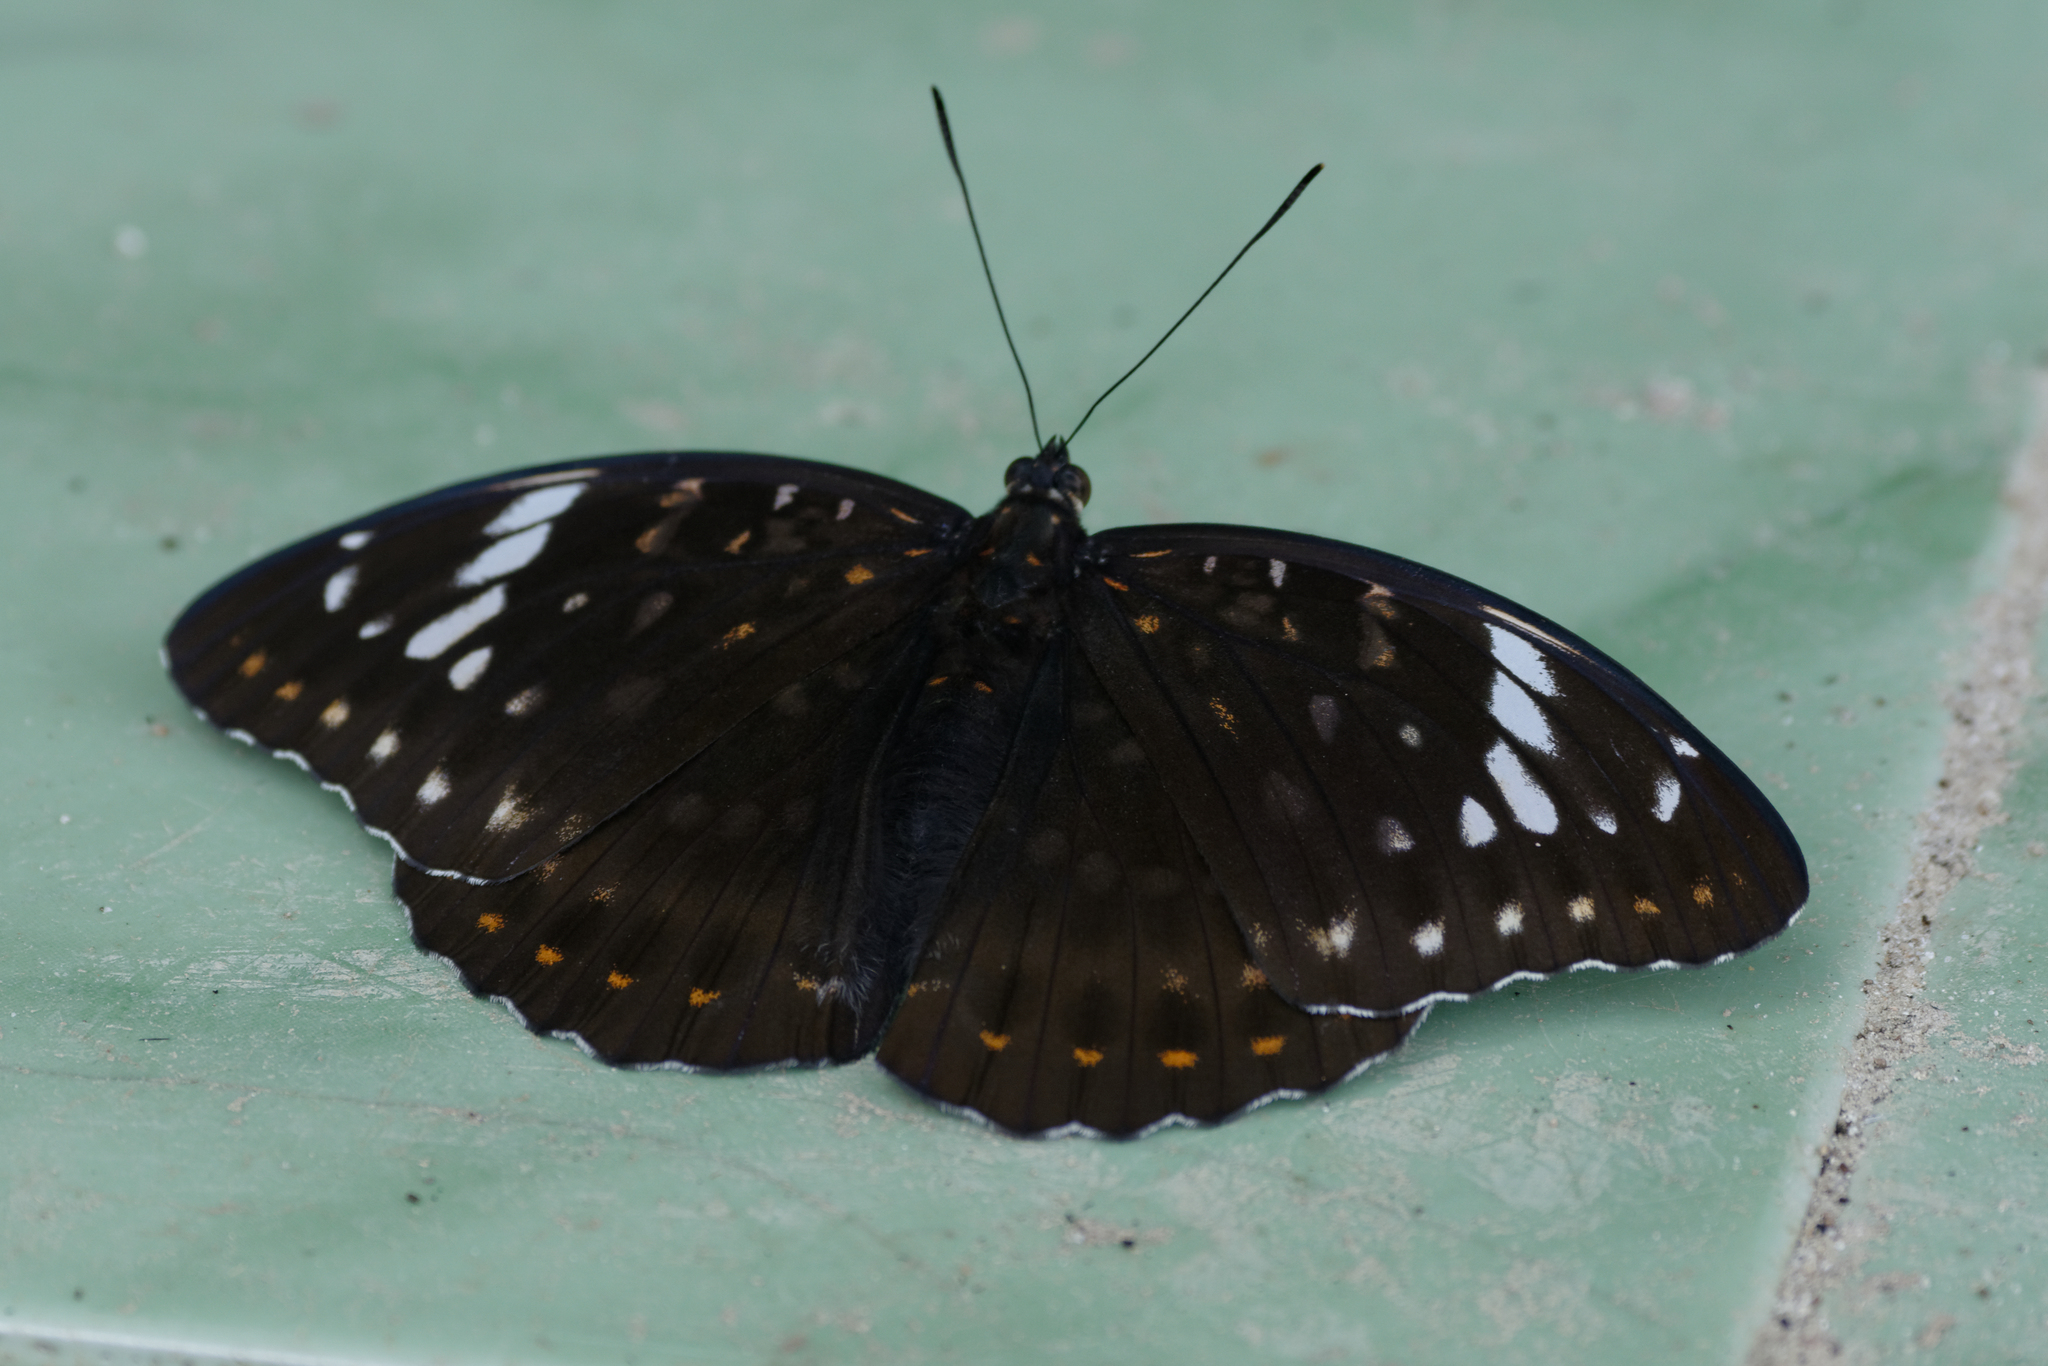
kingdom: Animalia
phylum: Arthropoda
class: Insecta
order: Lepidoptera
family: Nymphalidae
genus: Lexias
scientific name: Lexias aeetes
